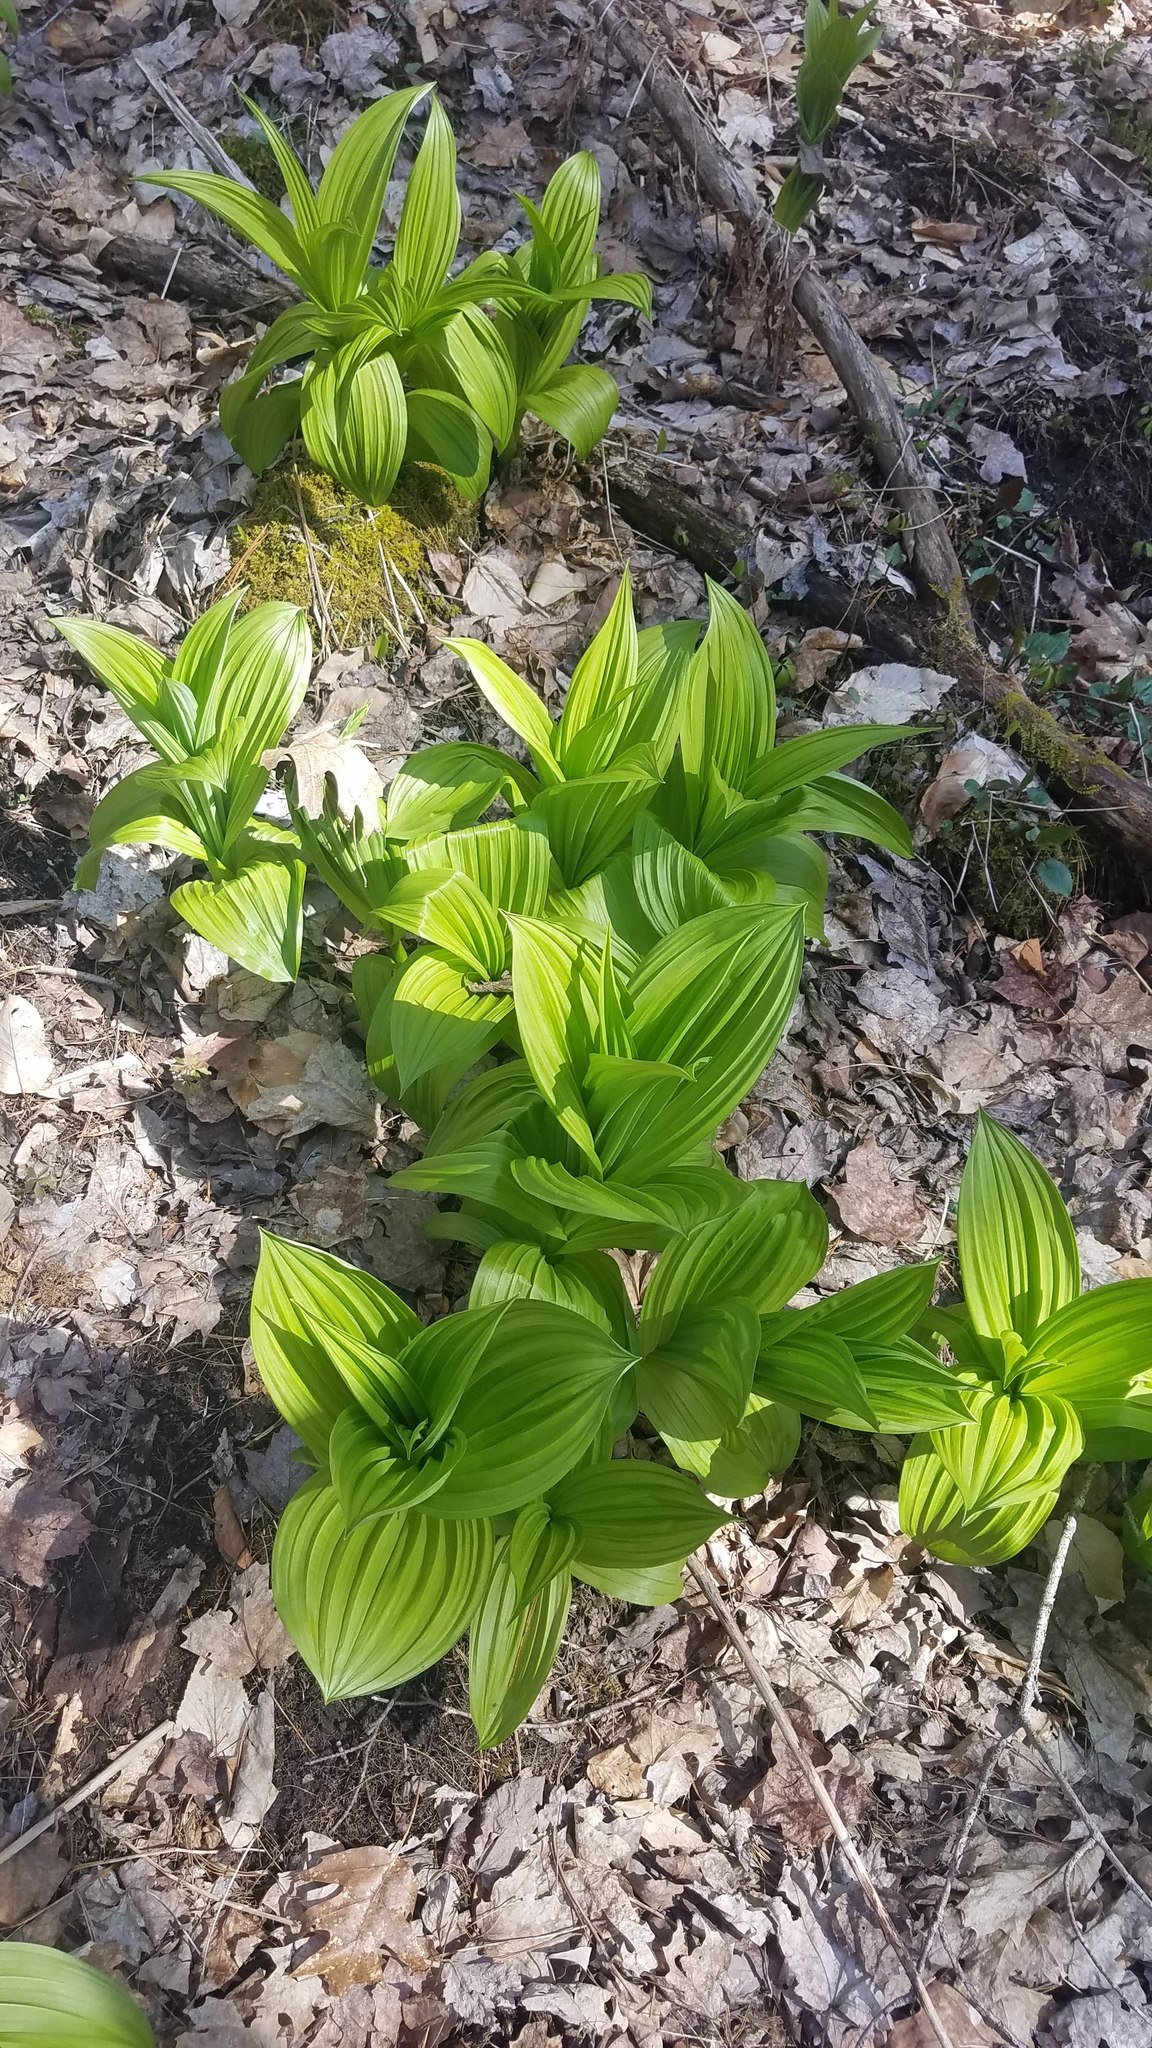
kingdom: Plantae
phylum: Tracheophyta
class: Liliopsida
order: Liliales
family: Melanthiaceae
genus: Veratrum
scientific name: Veratrum viride
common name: American false hellebore
